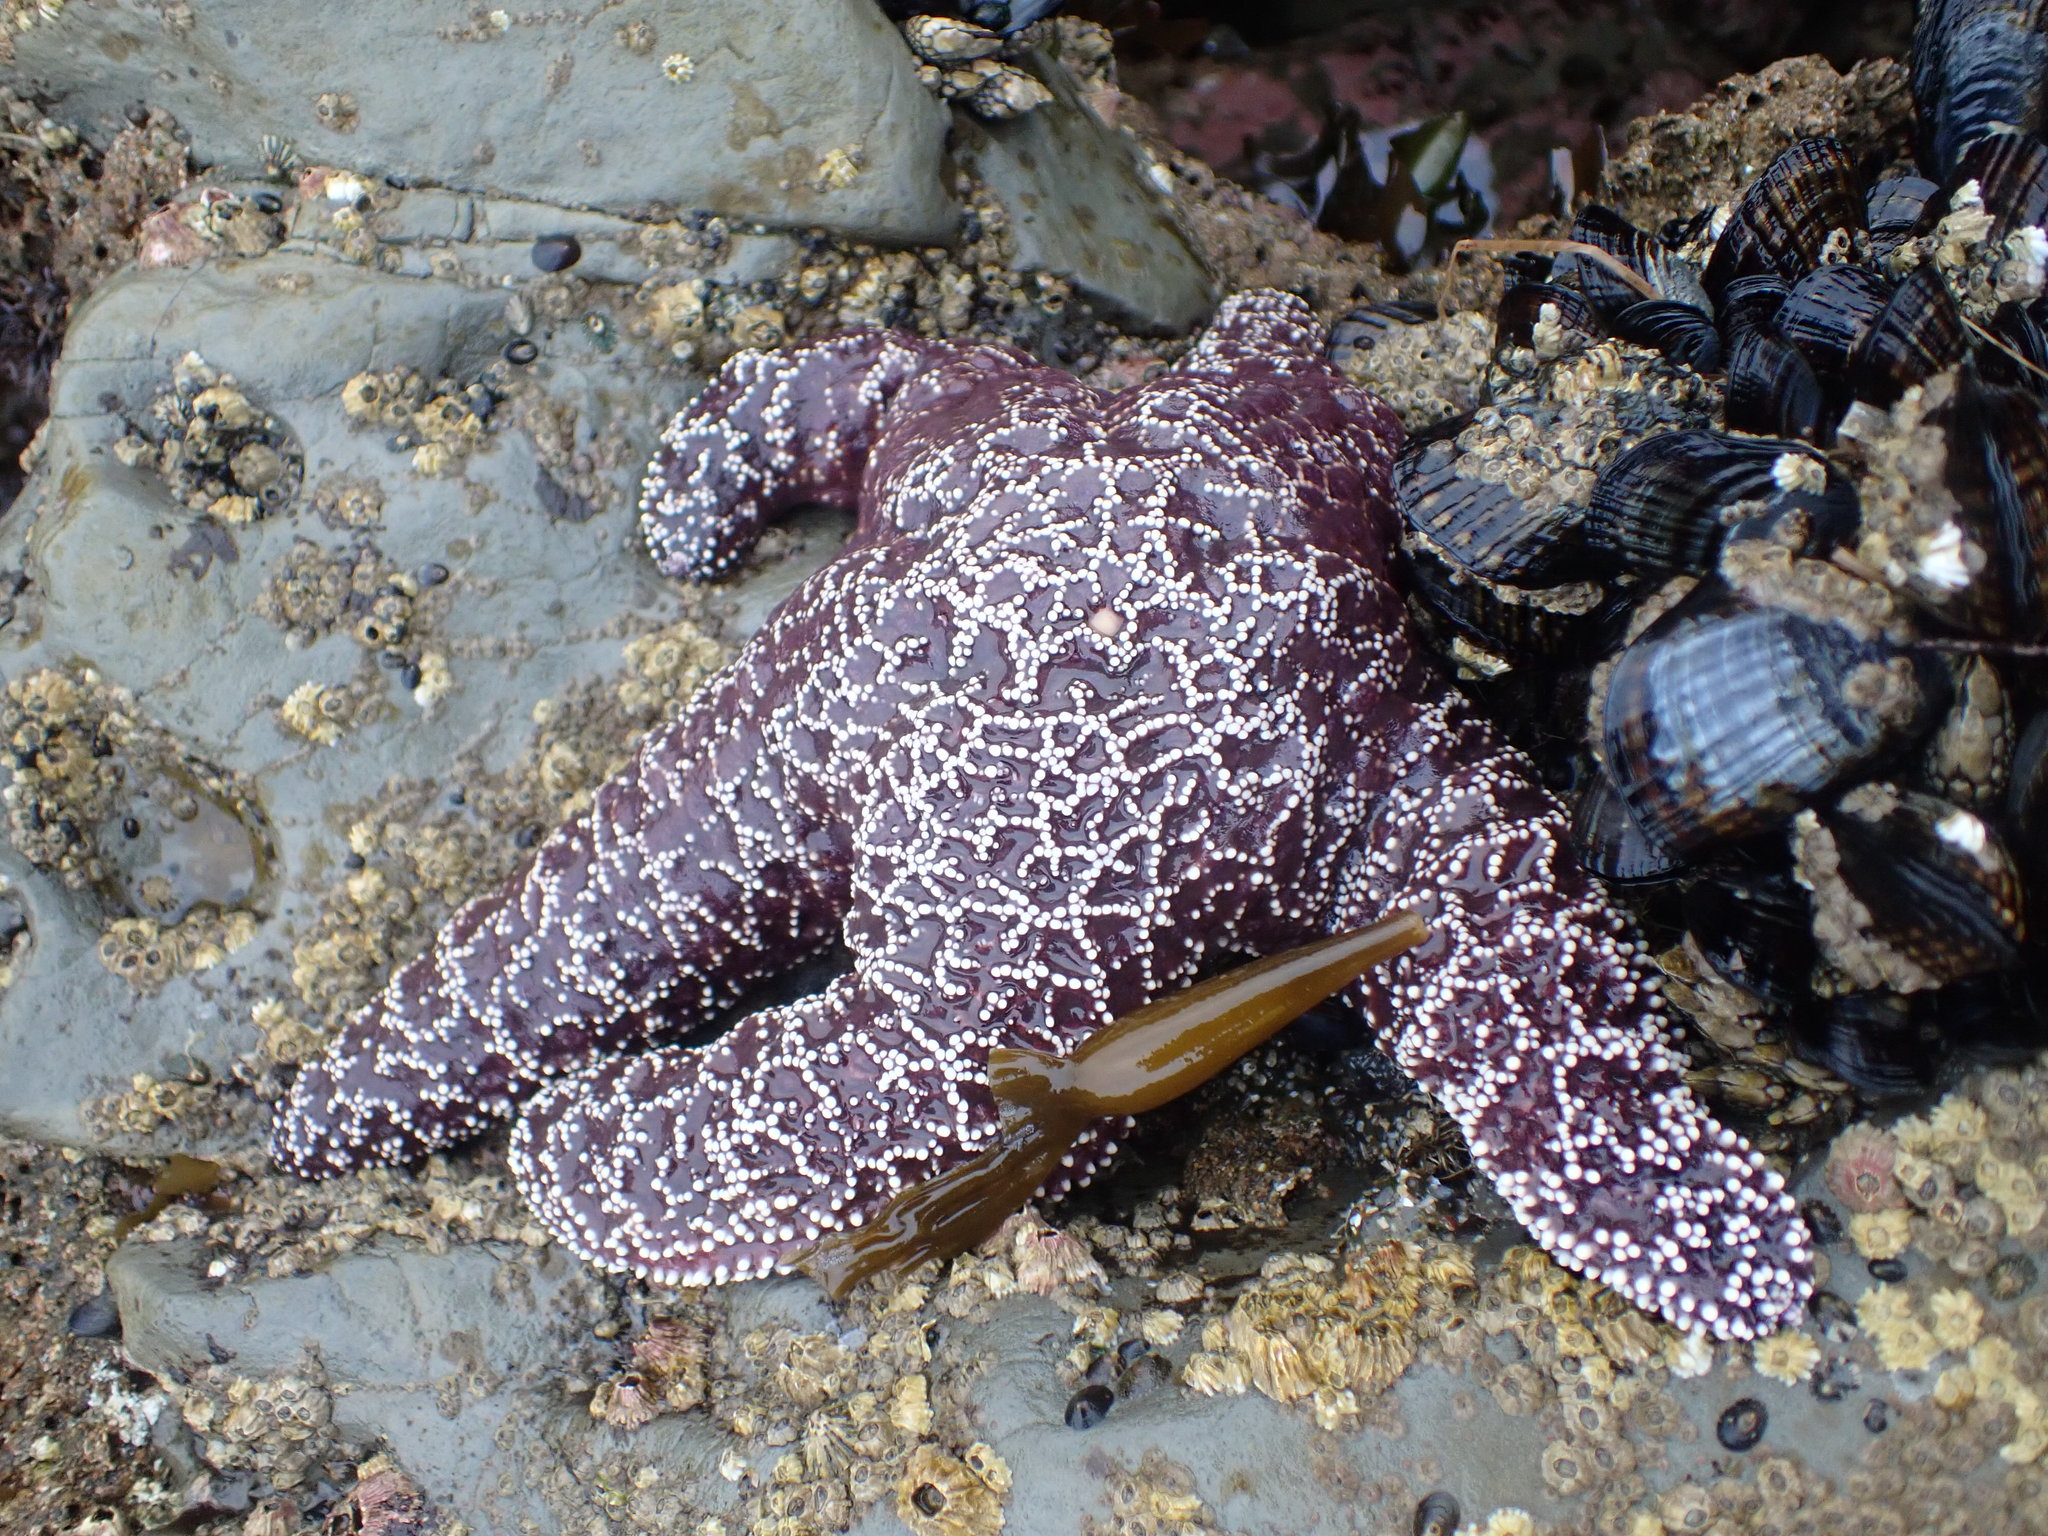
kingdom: Animalia
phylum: Echinodermata
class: Asteroidea
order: Forcipulatida
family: Asteriidae
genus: Pisaster
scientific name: Pisaster ochraceus
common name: Ochre stars
